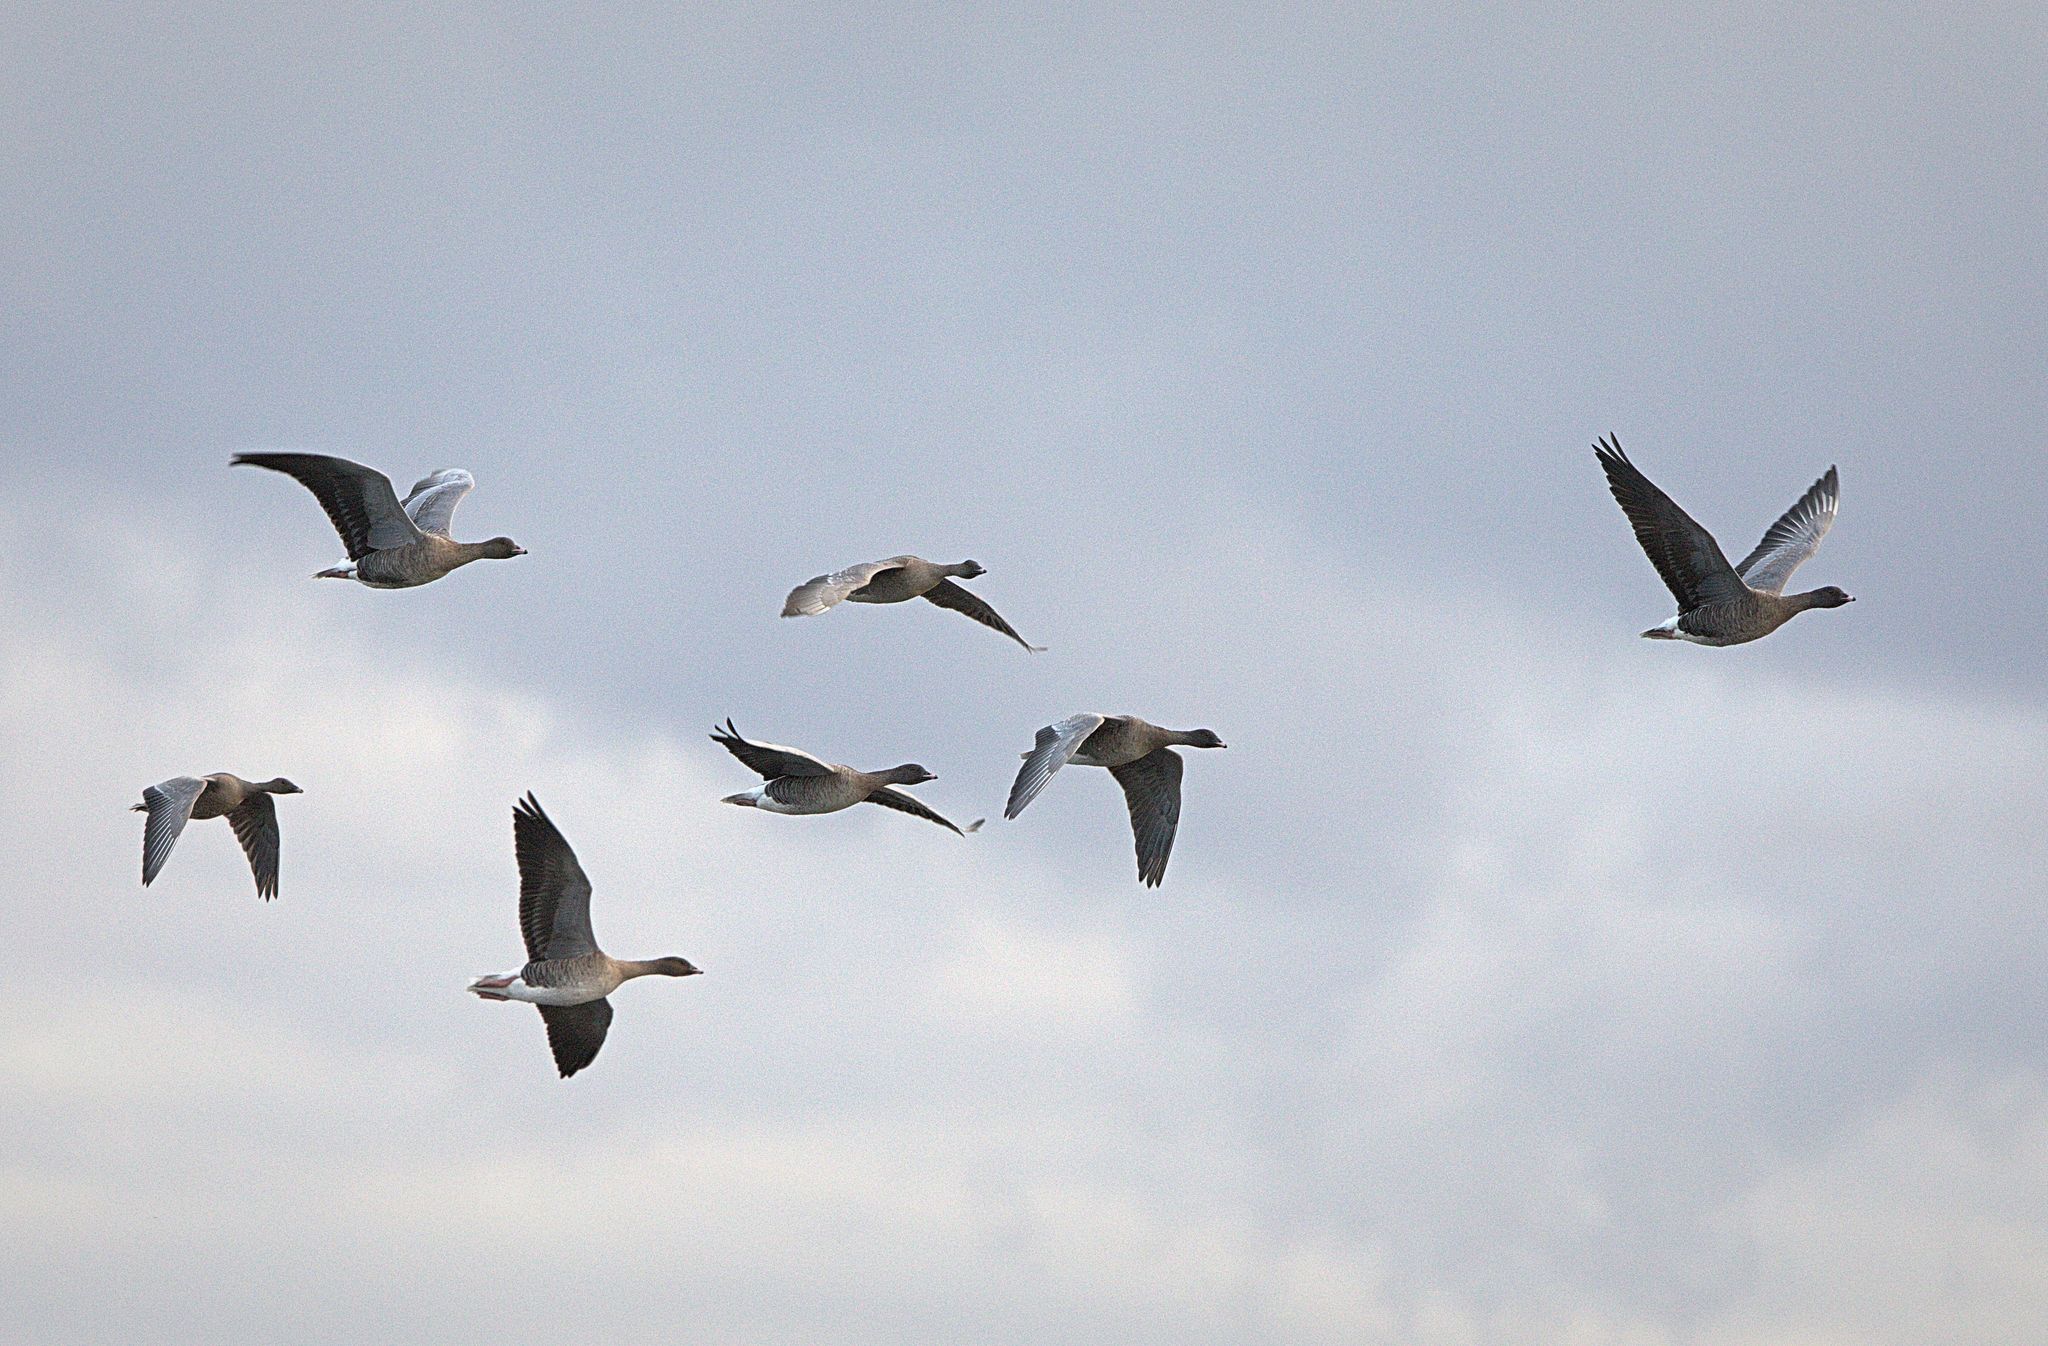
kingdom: Animalia
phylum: Chordata
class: Aves
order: Anseriformes
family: Anatidae
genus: Anser
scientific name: Anser brachyrhynchus
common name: Pink-footed goose
